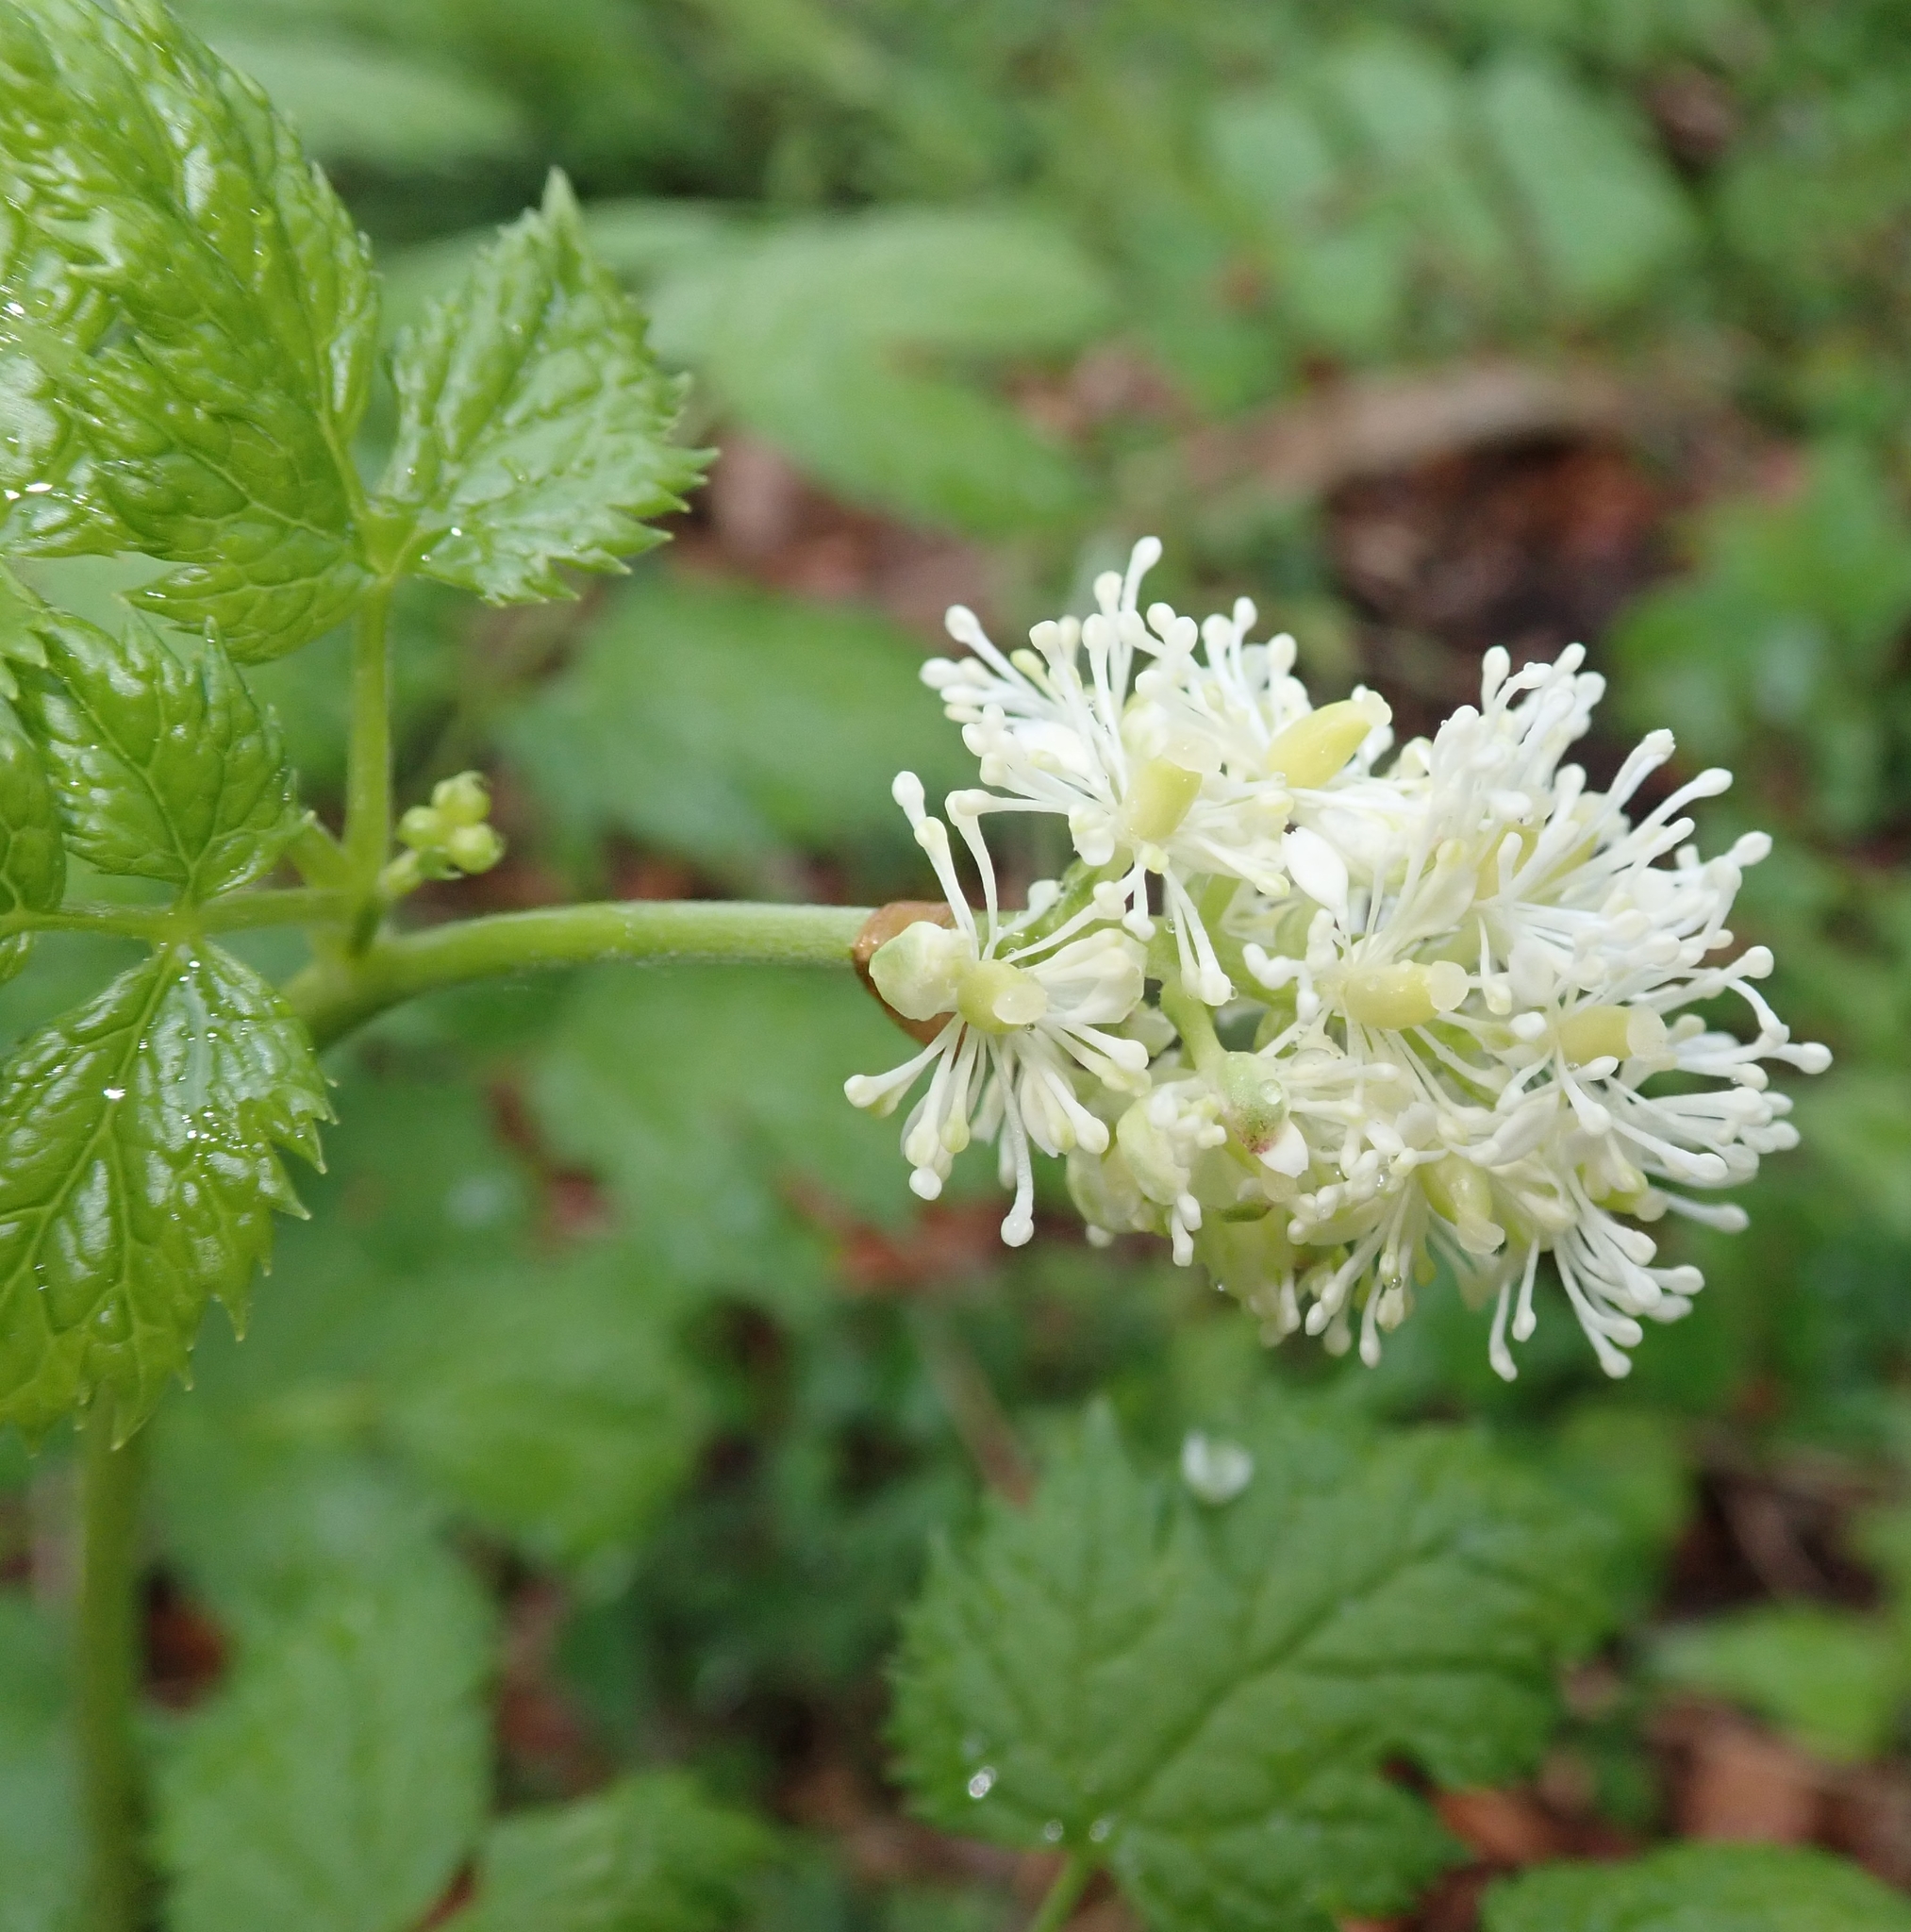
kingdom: Plantae
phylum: Tracheophyta
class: Magnoliopsida
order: Ranunculales
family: Ranunculaceae
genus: Actaea
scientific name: Actaea spicata
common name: Baneberry
